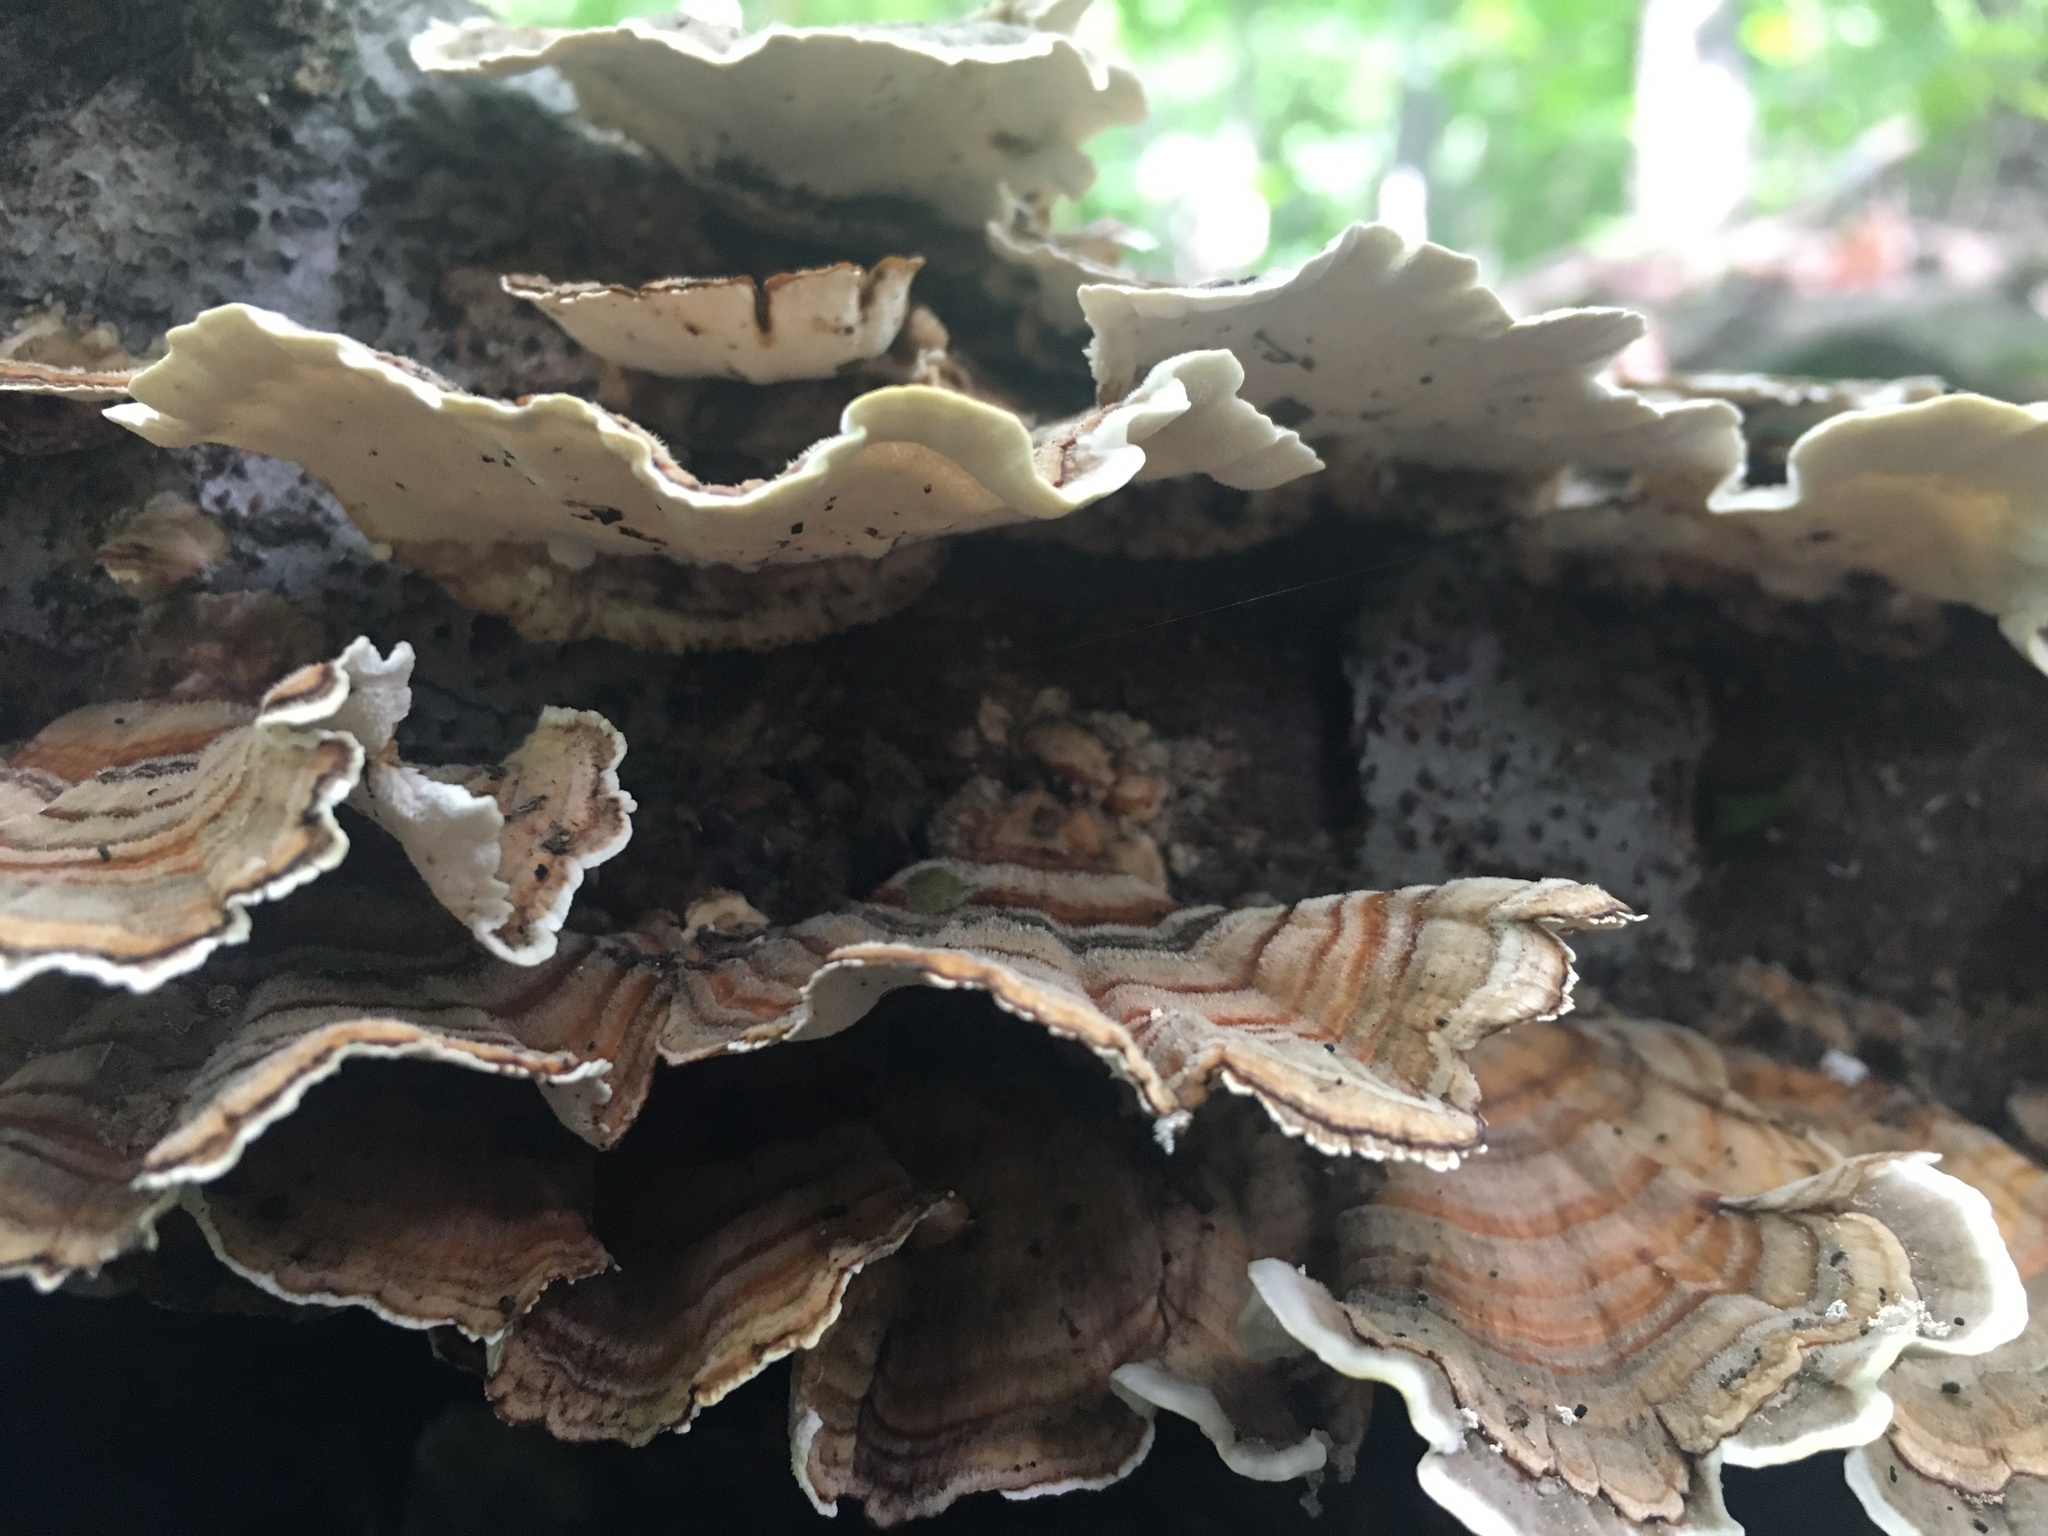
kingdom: Fungi
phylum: Basidiomycota
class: Agaricomycetes
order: Polyporales
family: Polyporaceae
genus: Trametes
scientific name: Trametes versicolor
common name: Turkeytail
